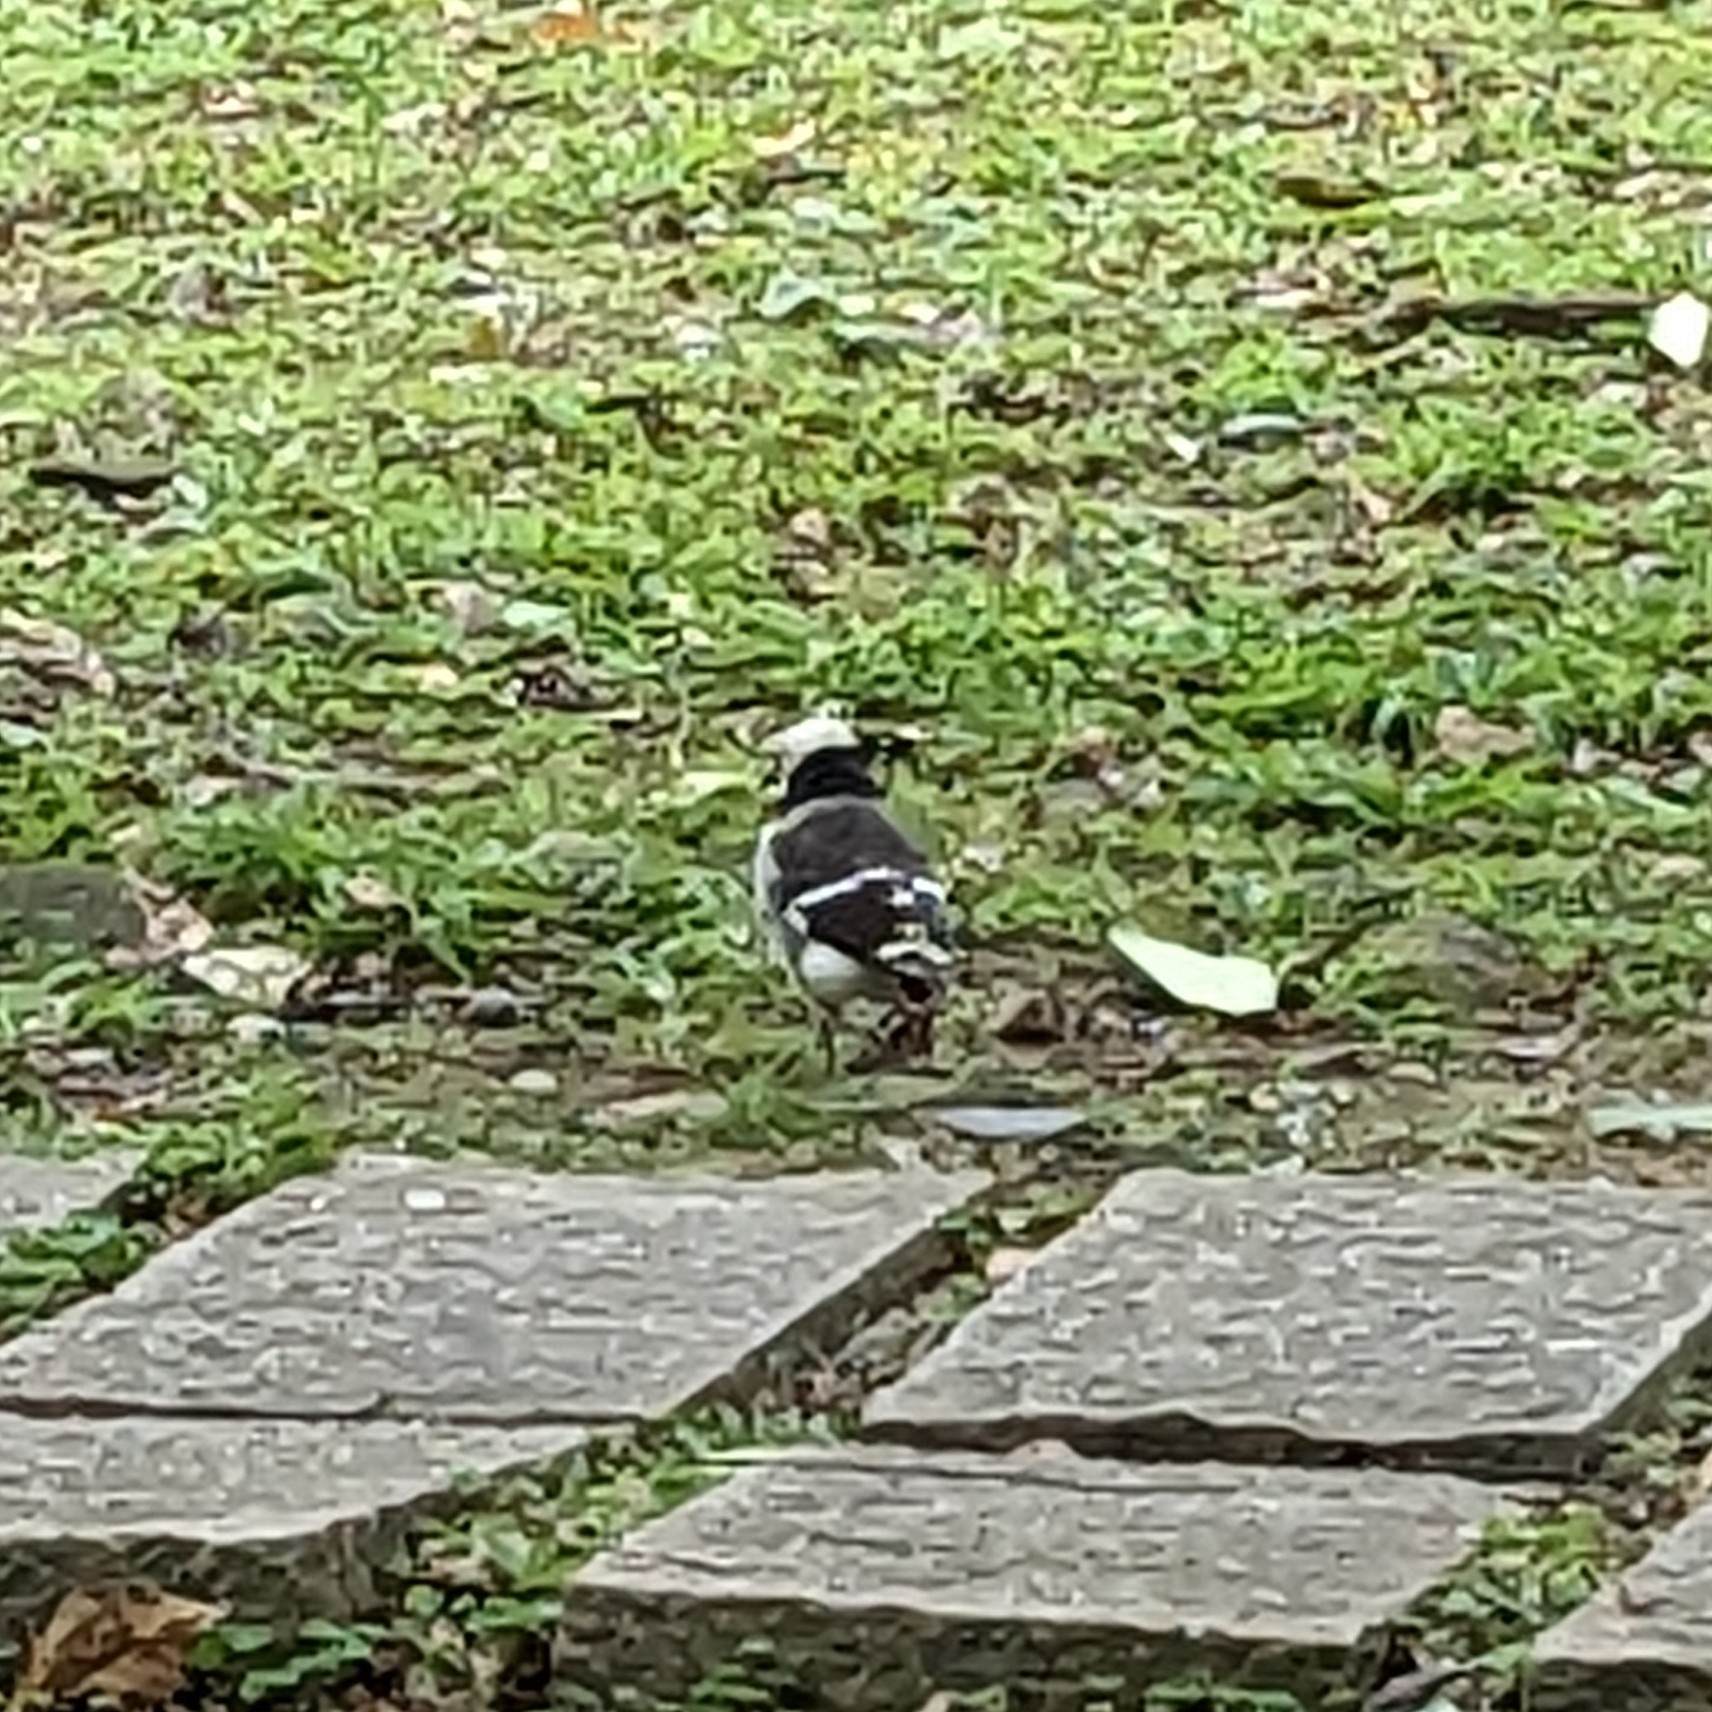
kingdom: Animalia
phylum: Chordata
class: Aves
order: Passeriformes
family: Sturnidae
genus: Gracupica
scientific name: Gracupica nigricollis
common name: Black-collared starling
